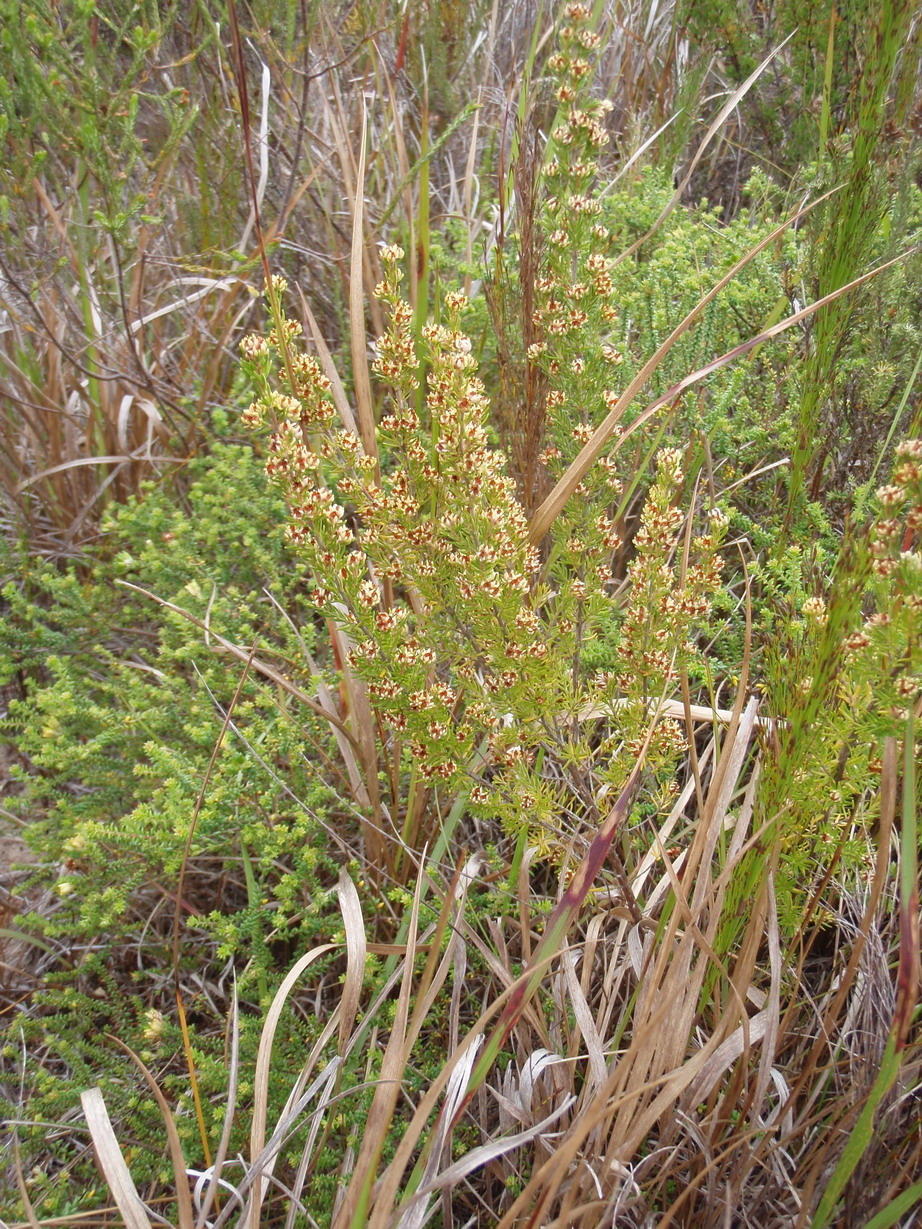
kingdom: Plantae
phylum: Tracheophyta
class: Magnoliopsida
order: Ericales
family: Ericaceae
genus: Erica
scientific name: Erica glumiflora
